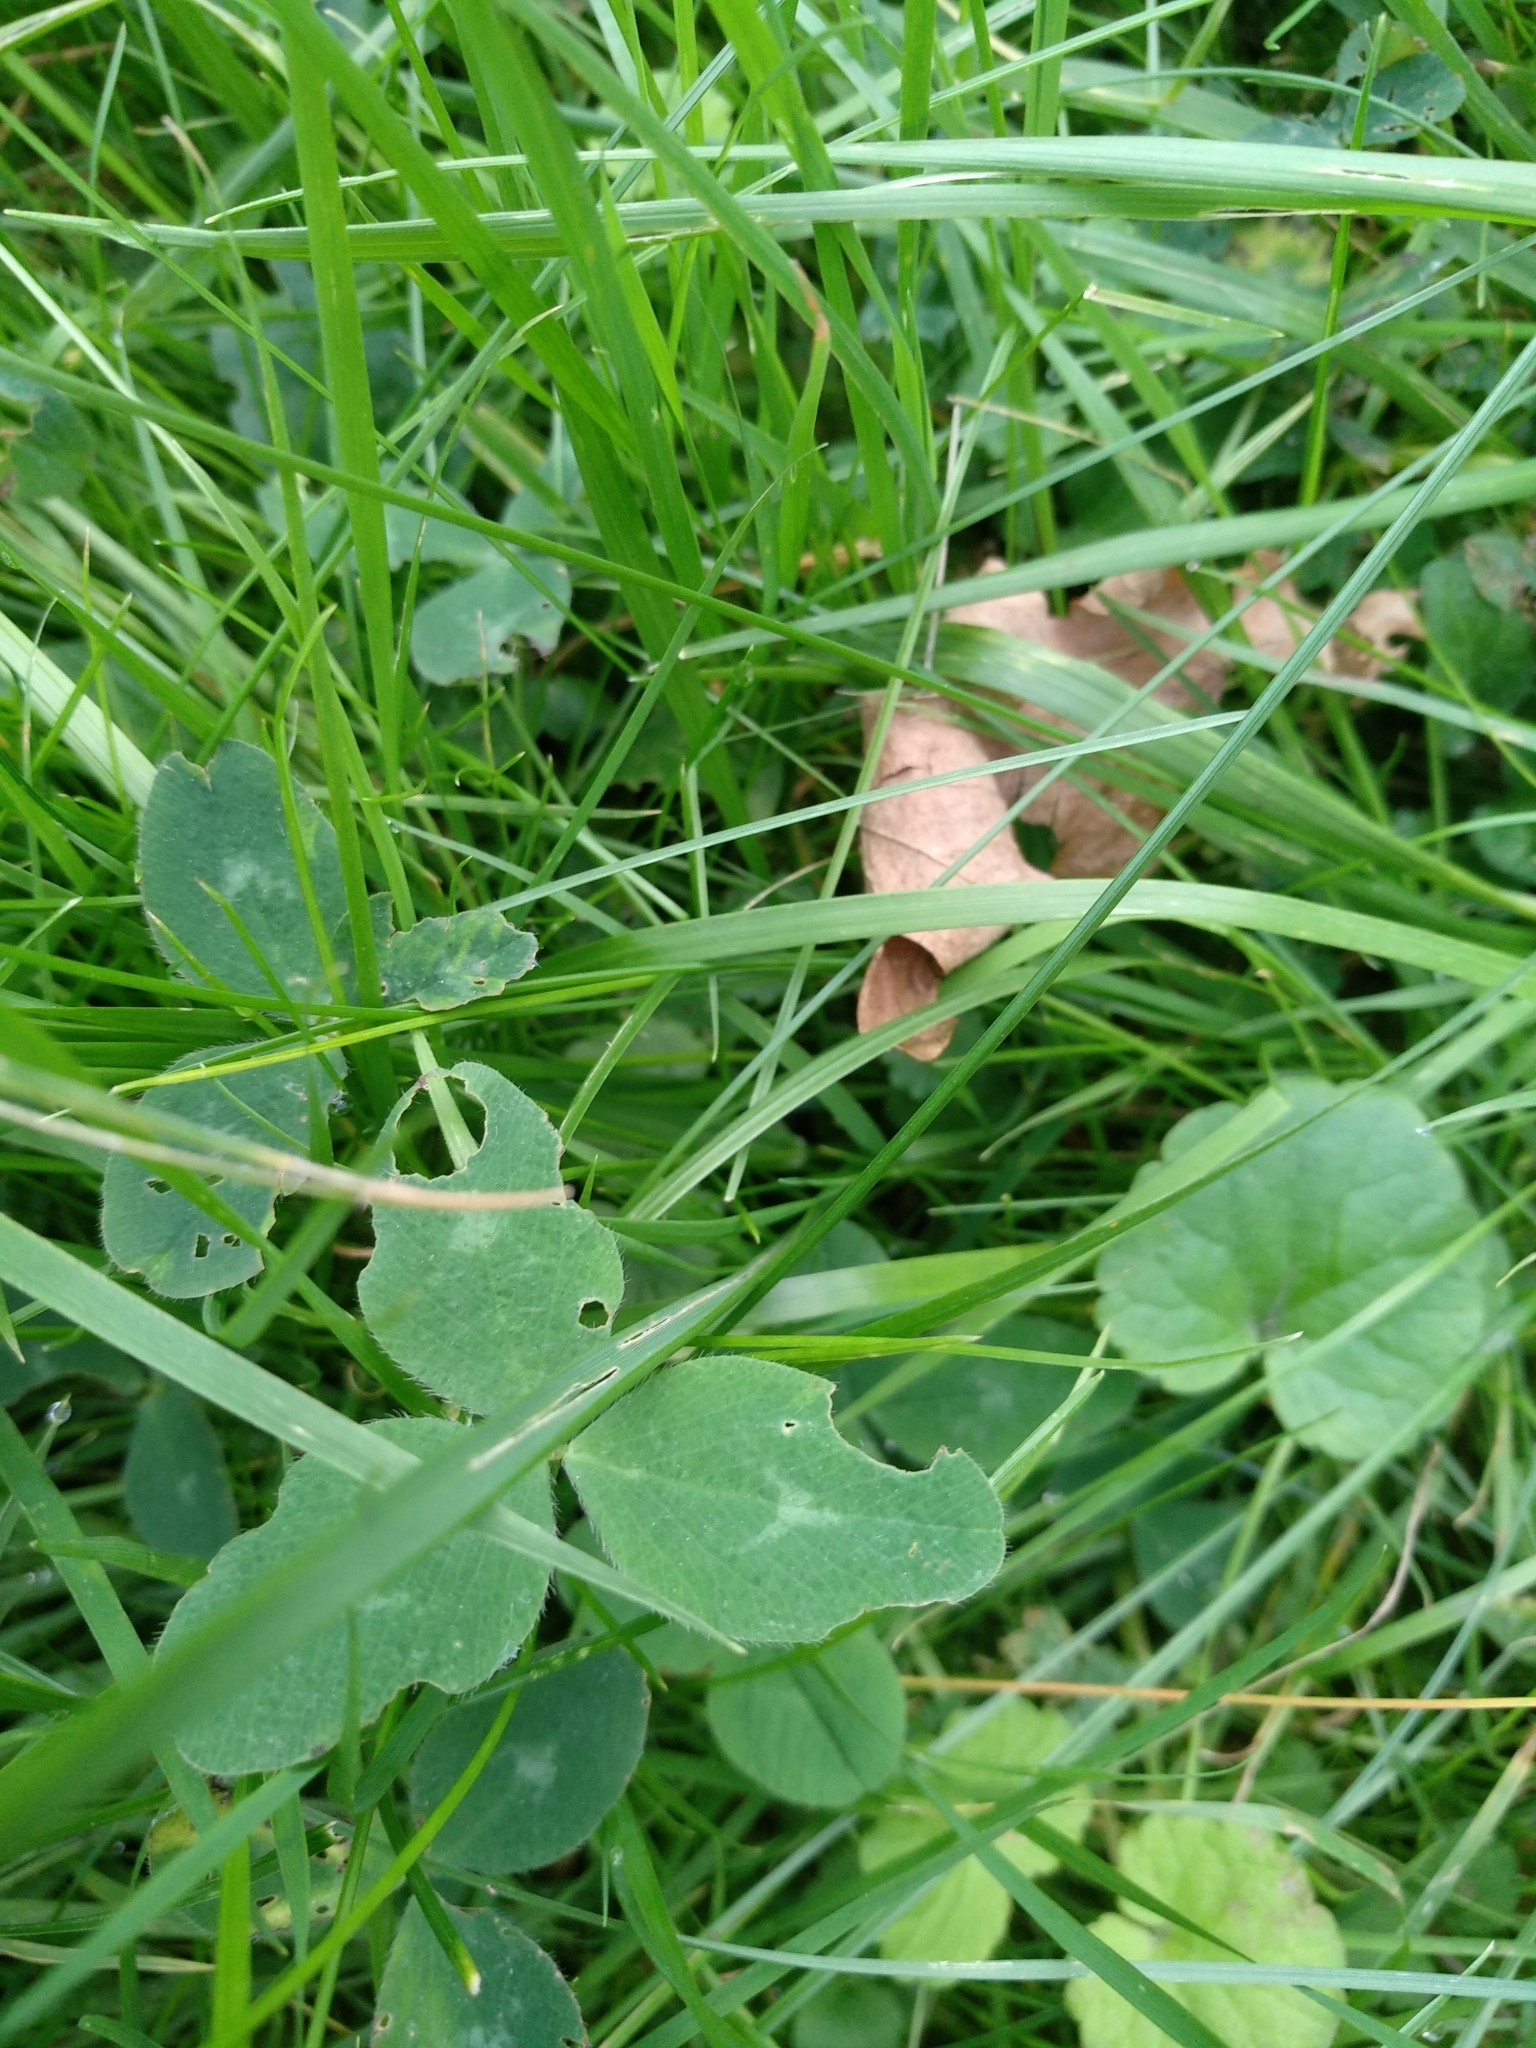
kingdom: Plantae
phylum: Tracheophyta
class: Magnoliopsida
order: Fabales
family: Fabaceae
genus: Trifolium
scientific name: Trifolium pratense
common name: Red clover
